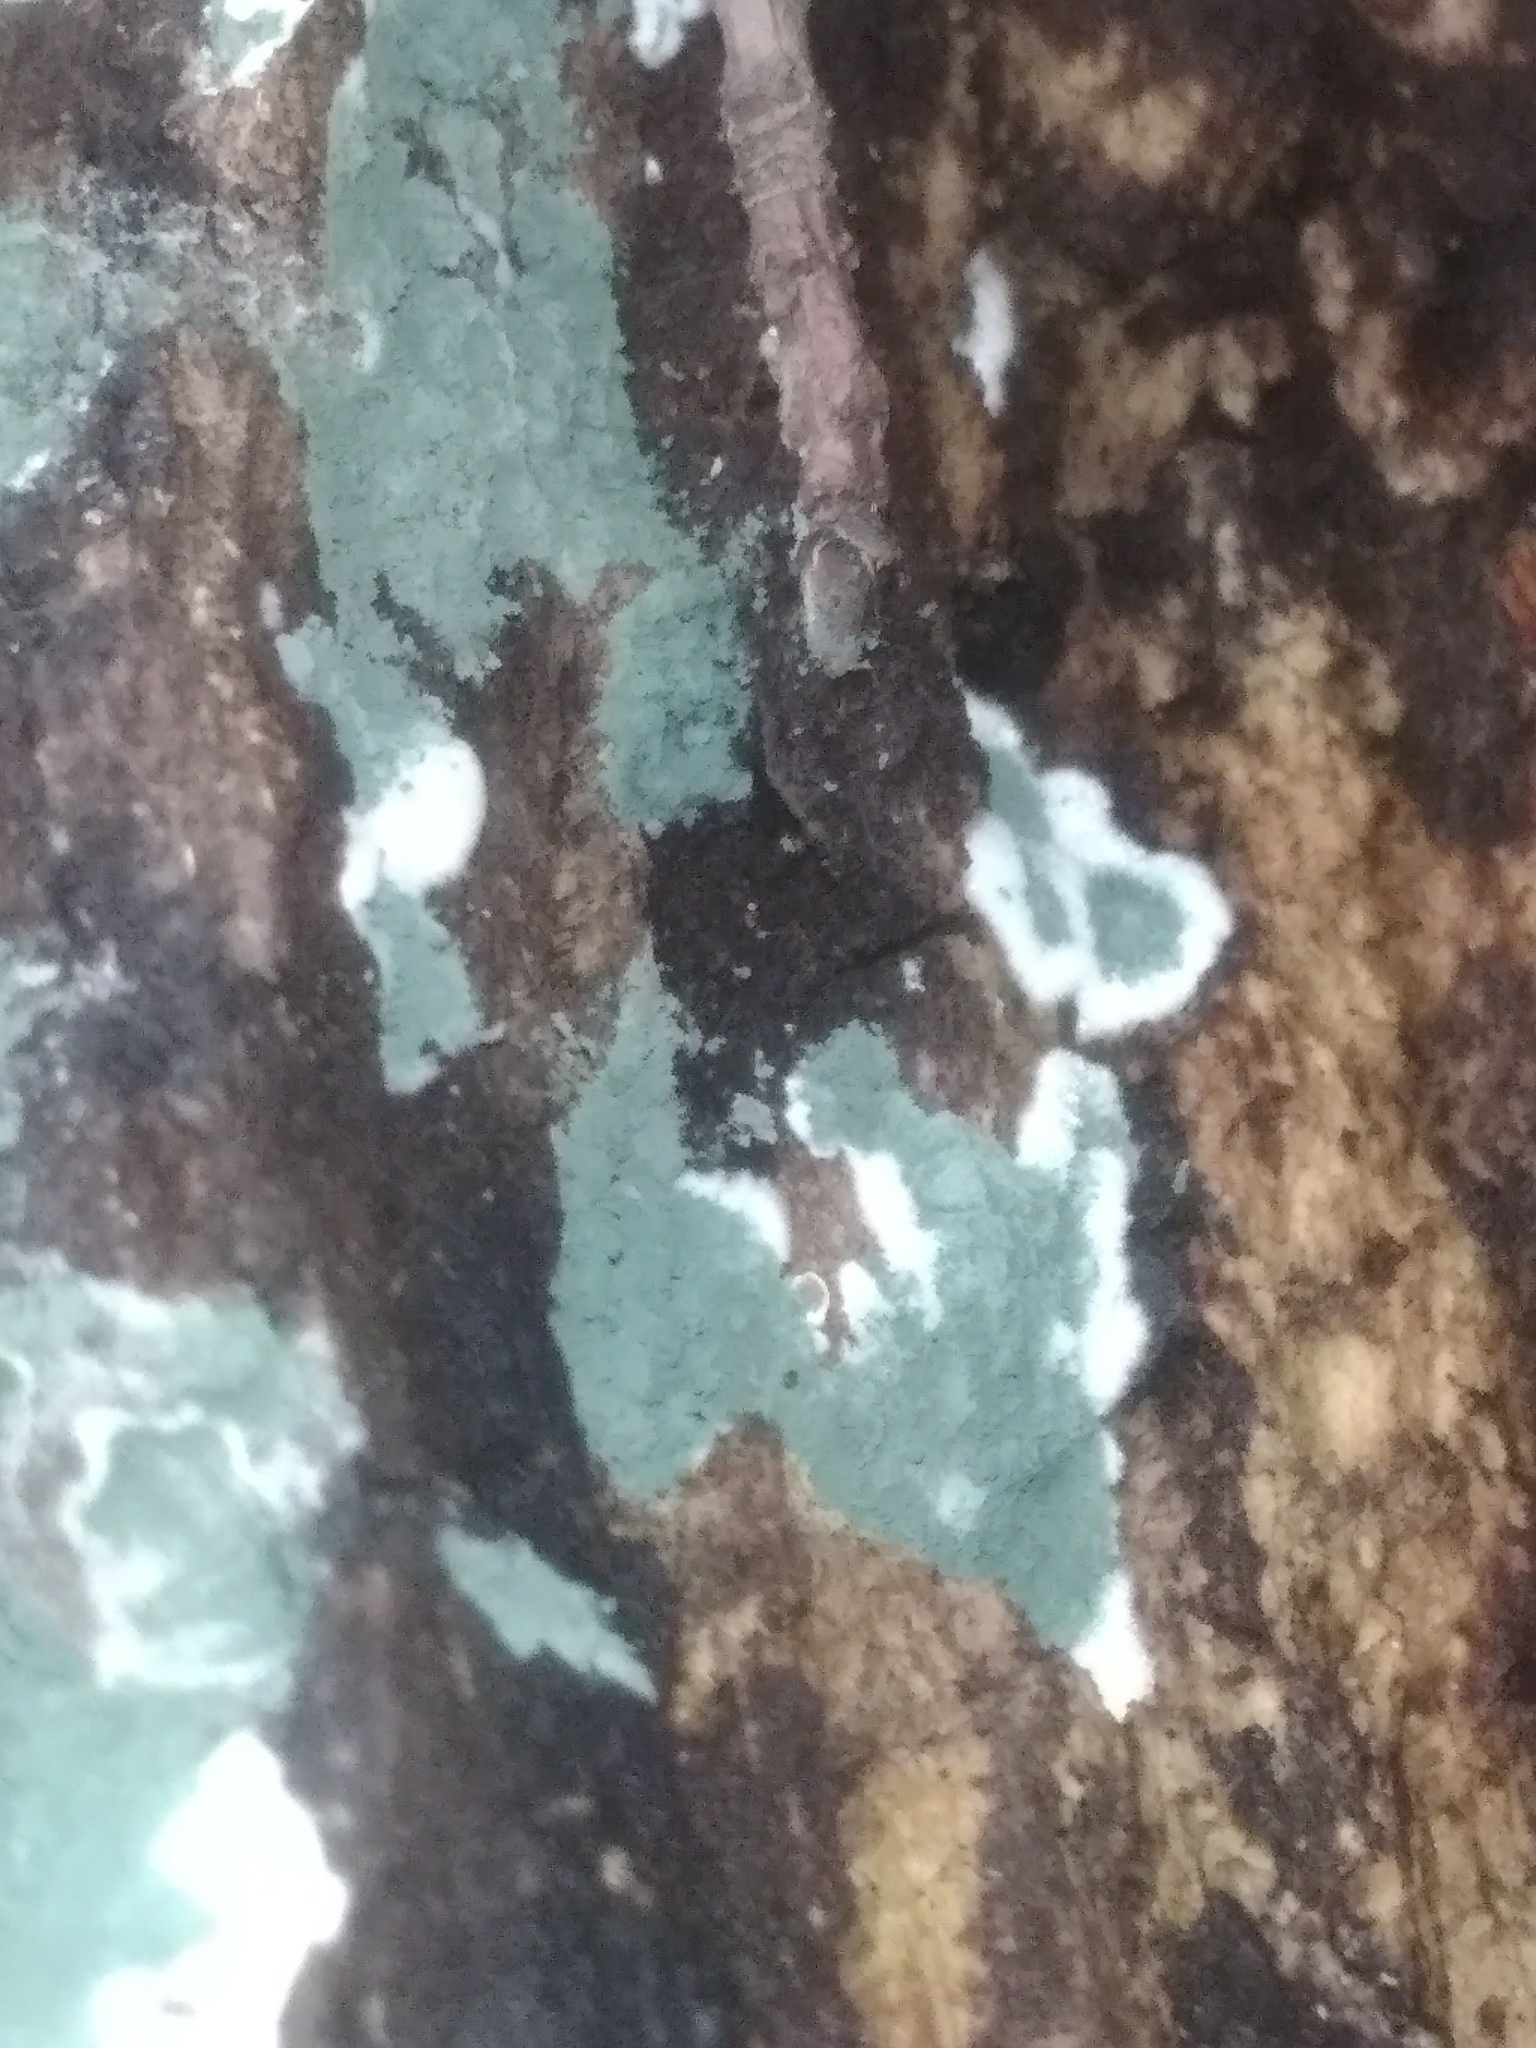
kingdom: Fungi
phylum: Ascomycota
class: Sordariomycetes
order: Hypocreales
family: Hypocreaceae
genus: Trichoderma
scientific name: Trichoderma viride
